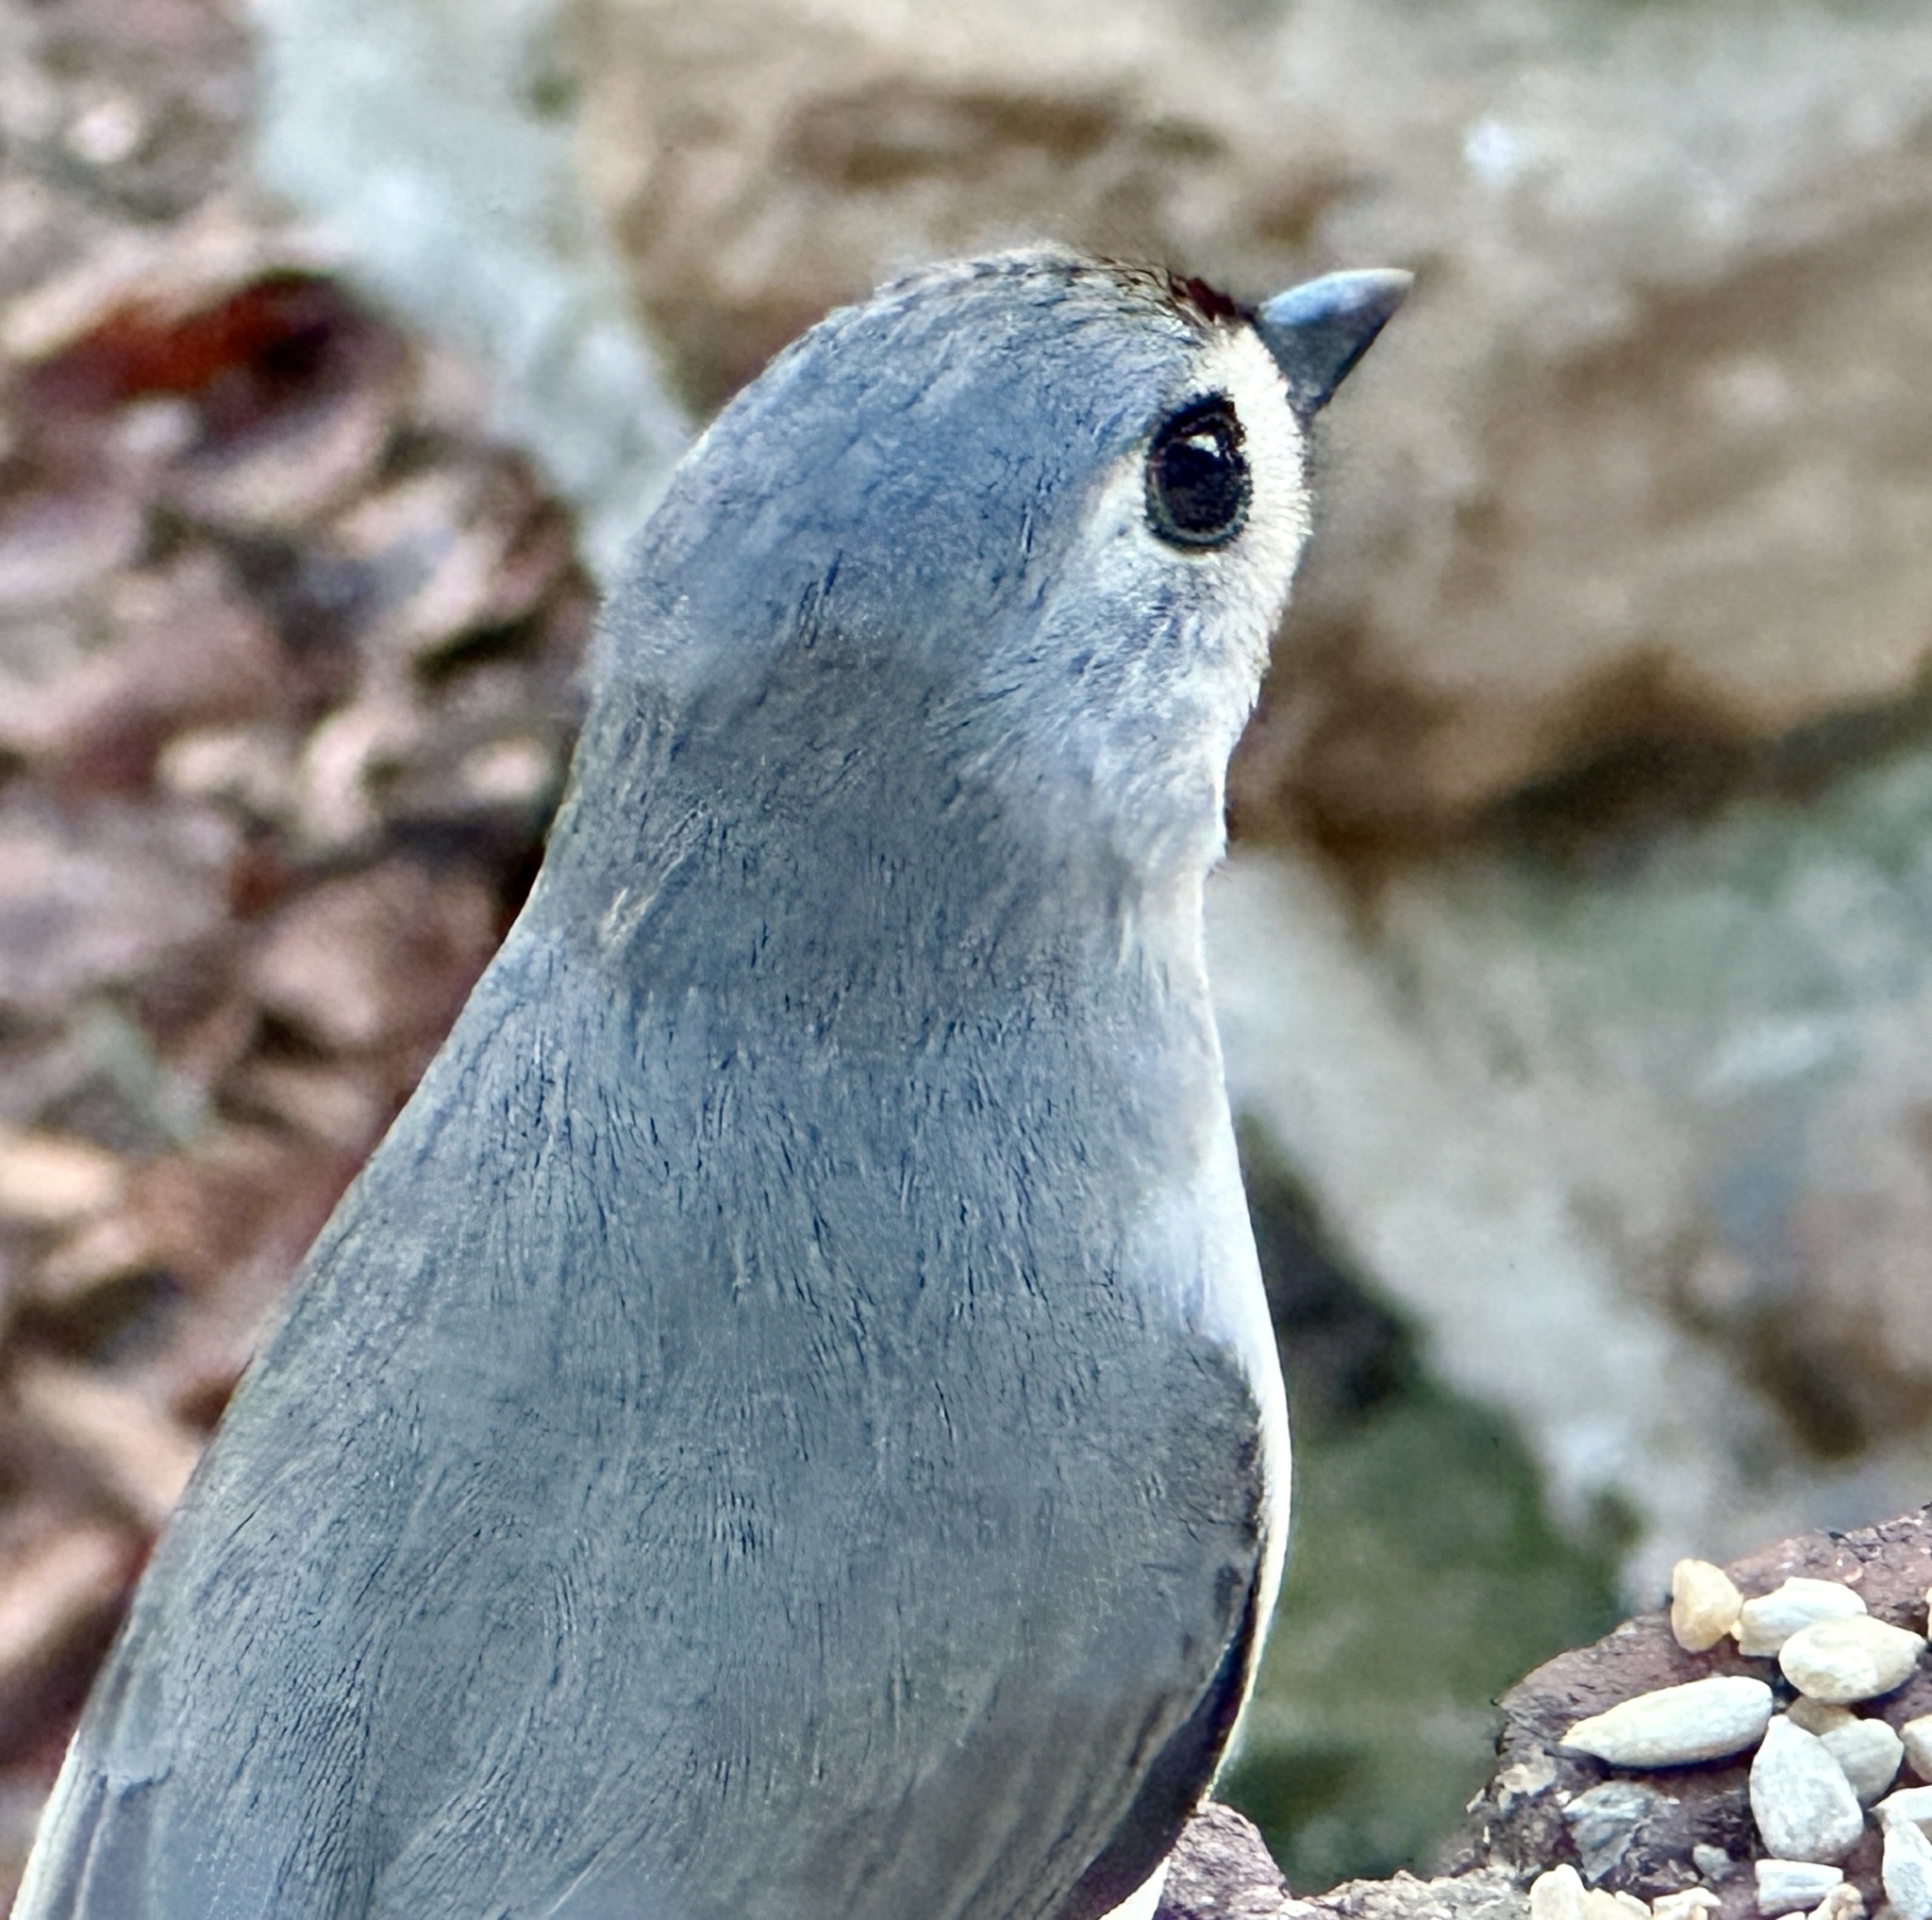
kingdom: Animalia
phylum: Chordata
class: Aves
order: Passeriformes
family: Paridae
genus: Baeolophus
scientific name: Baeolophus bicolor
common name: Tufted titmouse
